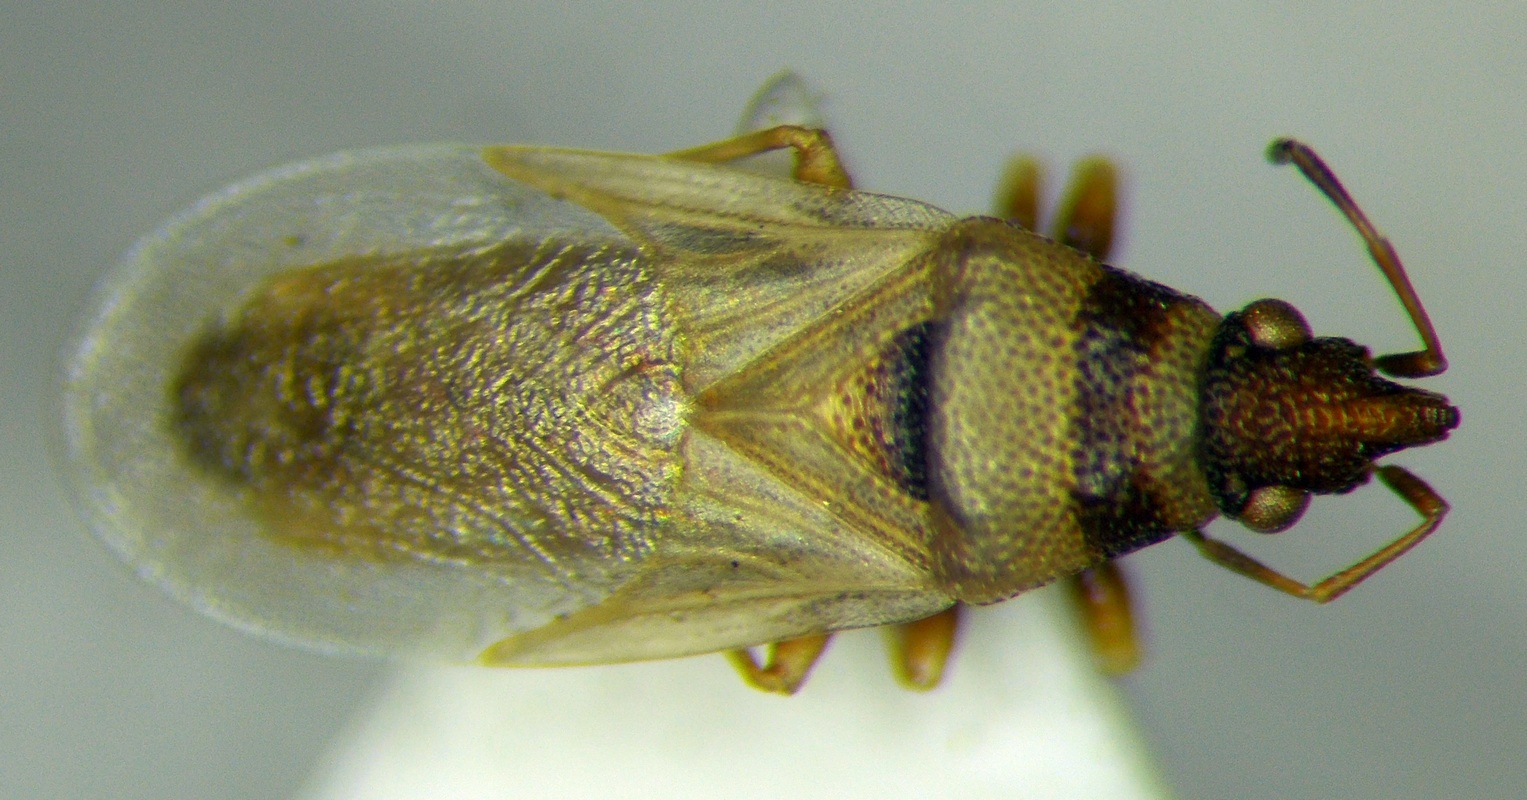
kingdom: Animalia
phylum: Arthropoda
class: Insecta
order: Hemiptera
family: Oxycarenidae
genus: Oxycarenus
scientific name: Oxycarenus pallens
